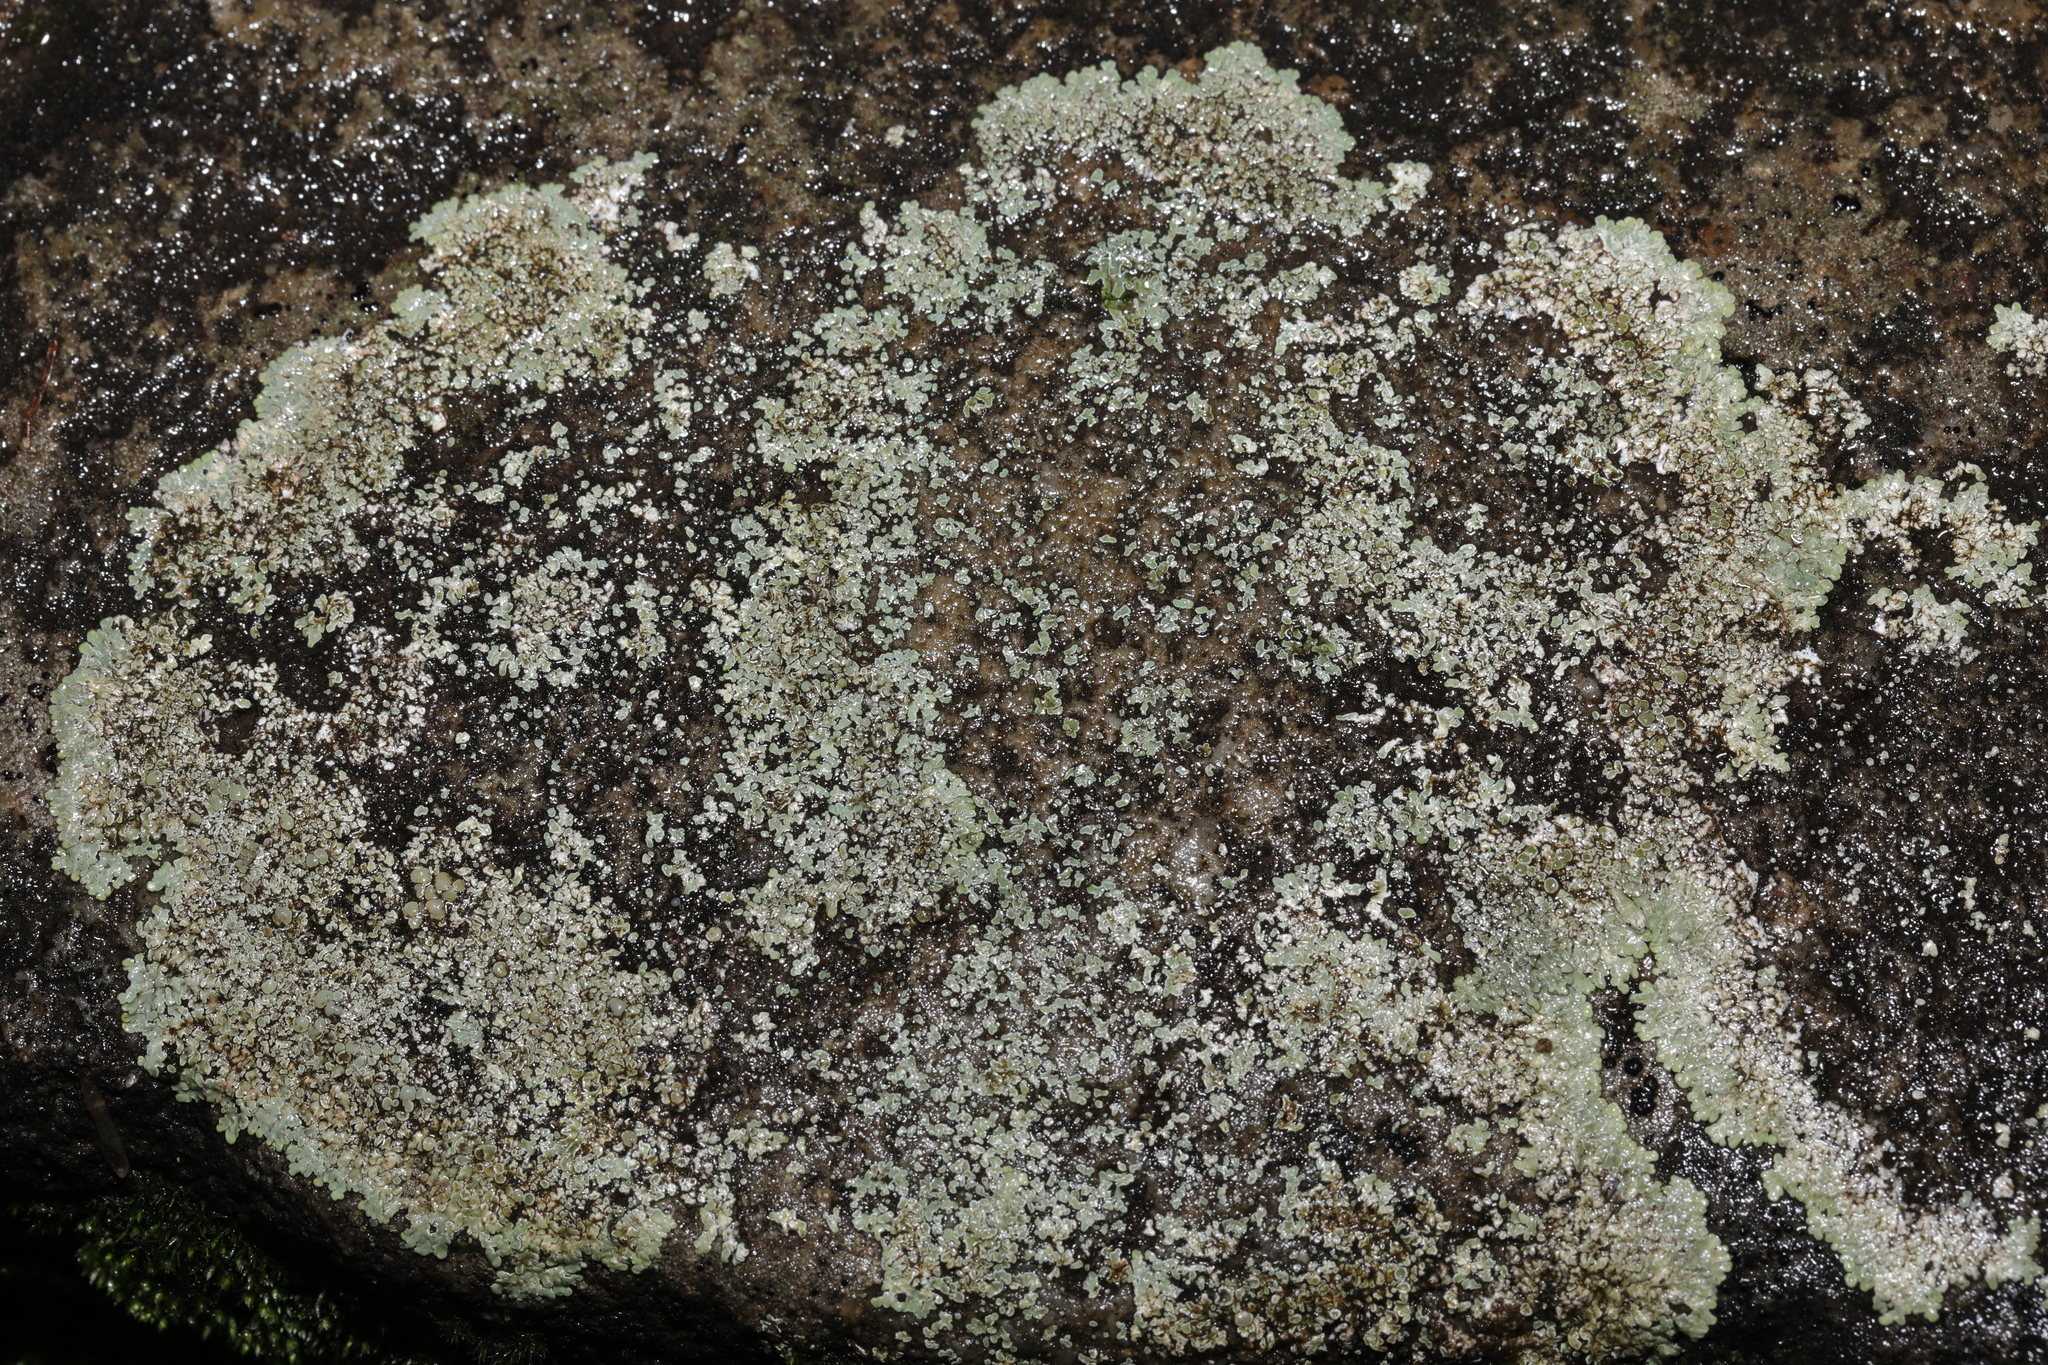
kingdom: Fungi
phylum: Ascomycota
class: Lecanoromycetes
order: Lecanorales
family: Lecanoraceae
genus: Protoparmeliopsis
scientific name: Protoparmeliopsis muralis
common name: Stonewall rim lichen
